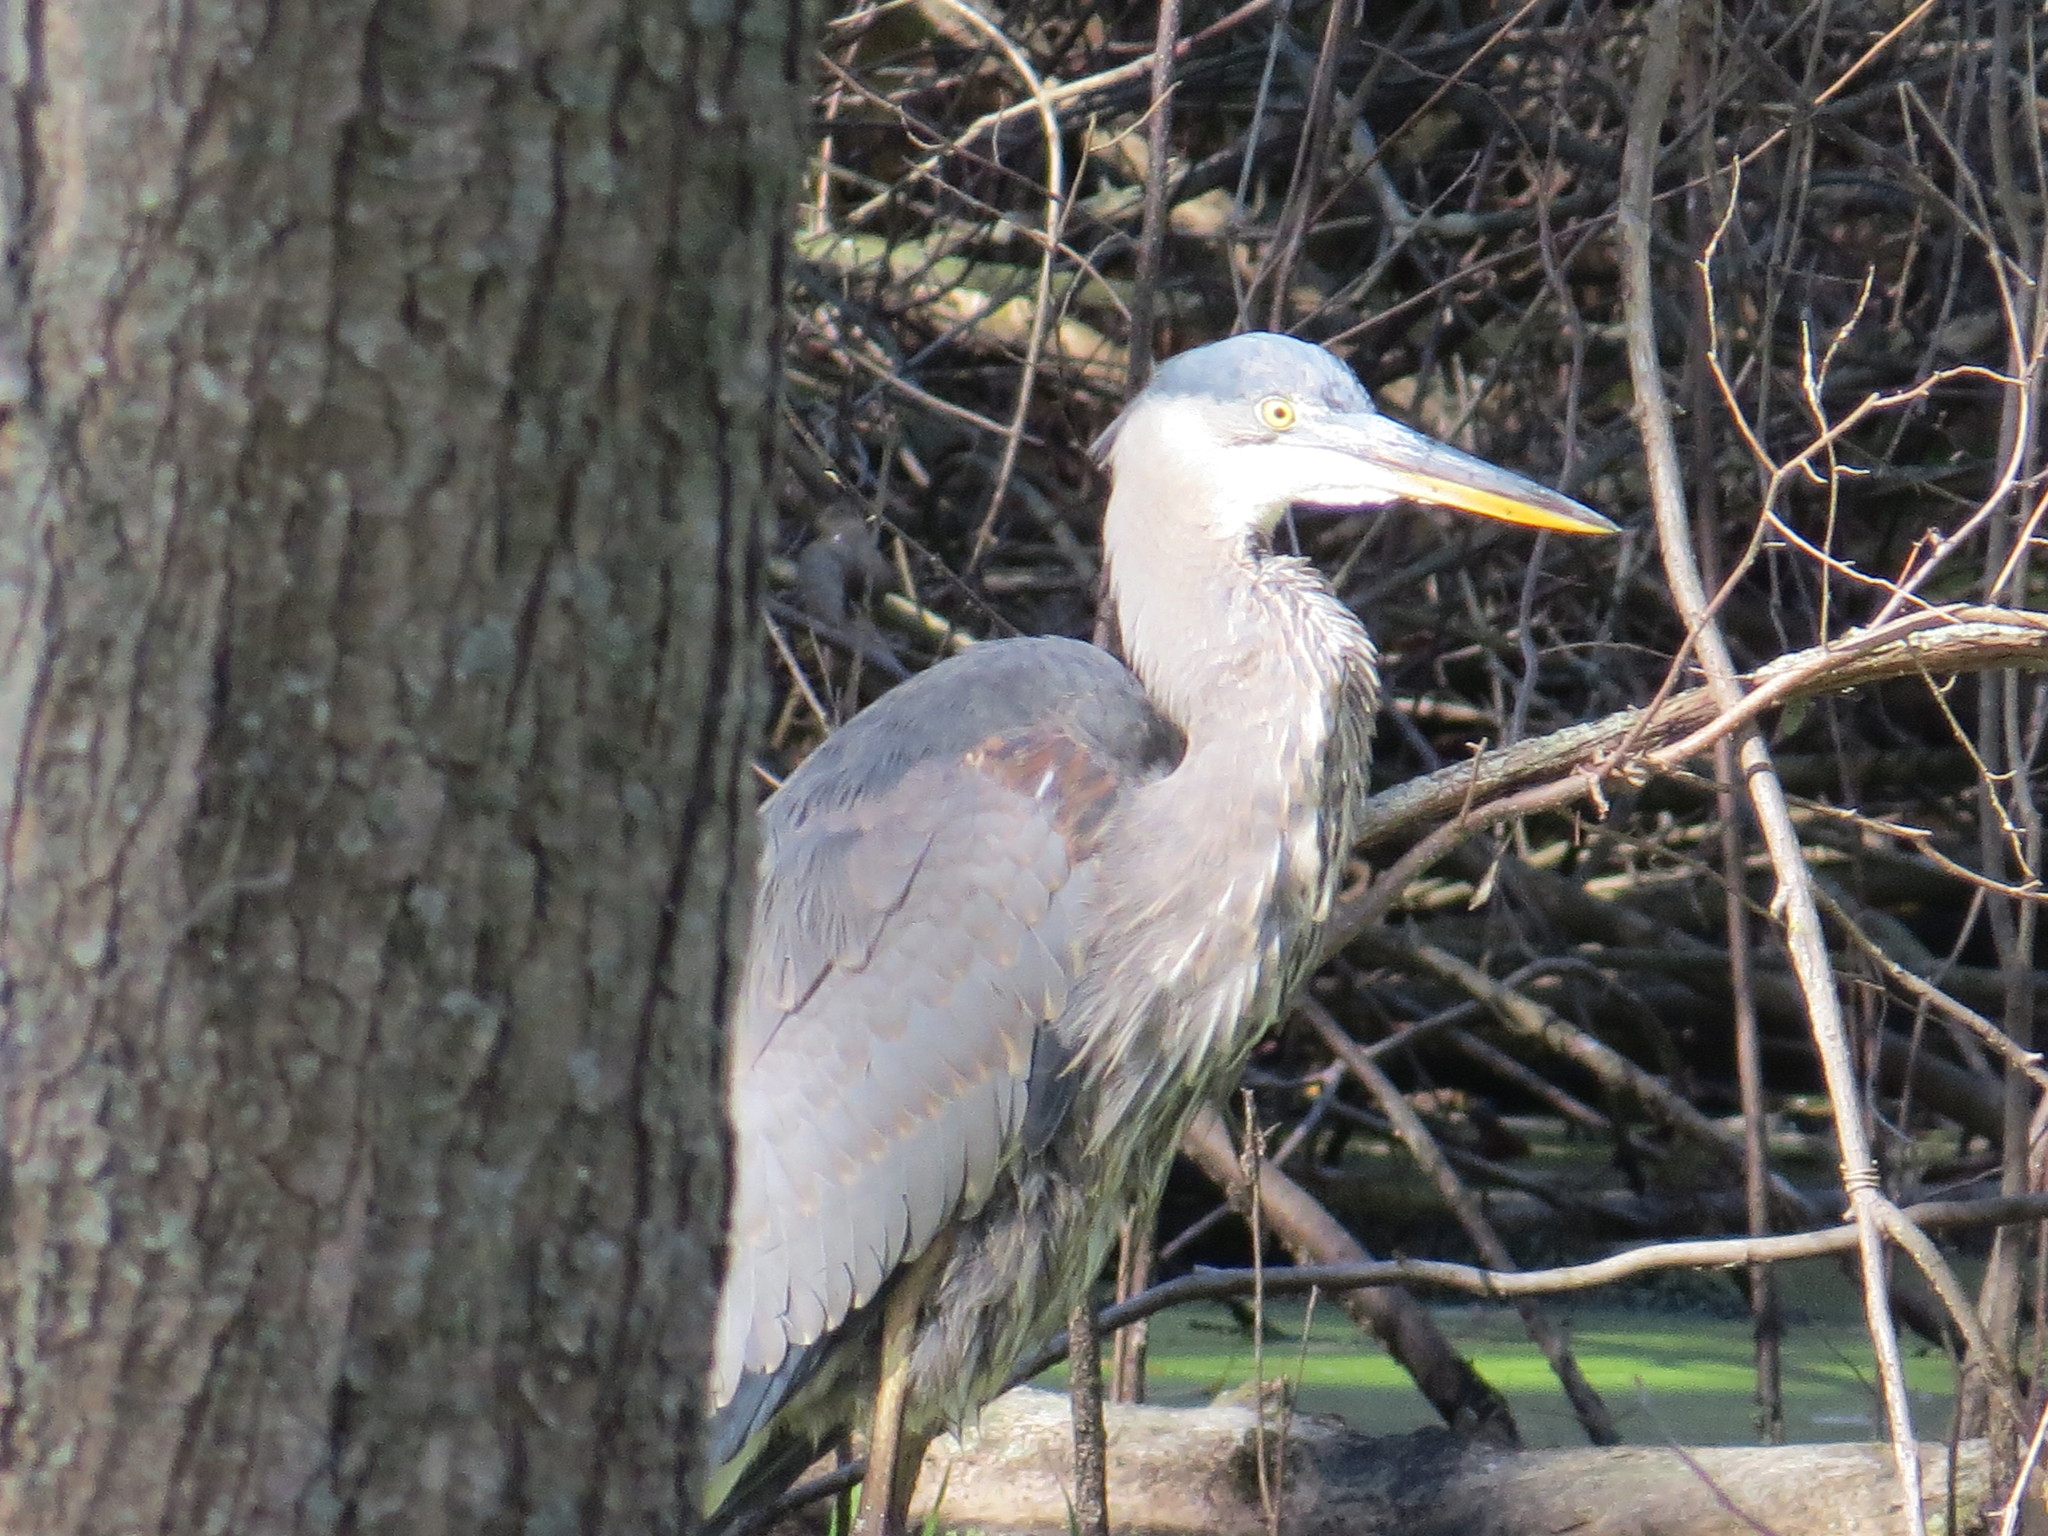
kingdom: Animalia
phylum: Chordata
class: Aves
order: Pelecaniformes
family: Ardeidae
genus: Ardea
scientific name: Ardea herodias
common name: Great blue heron
